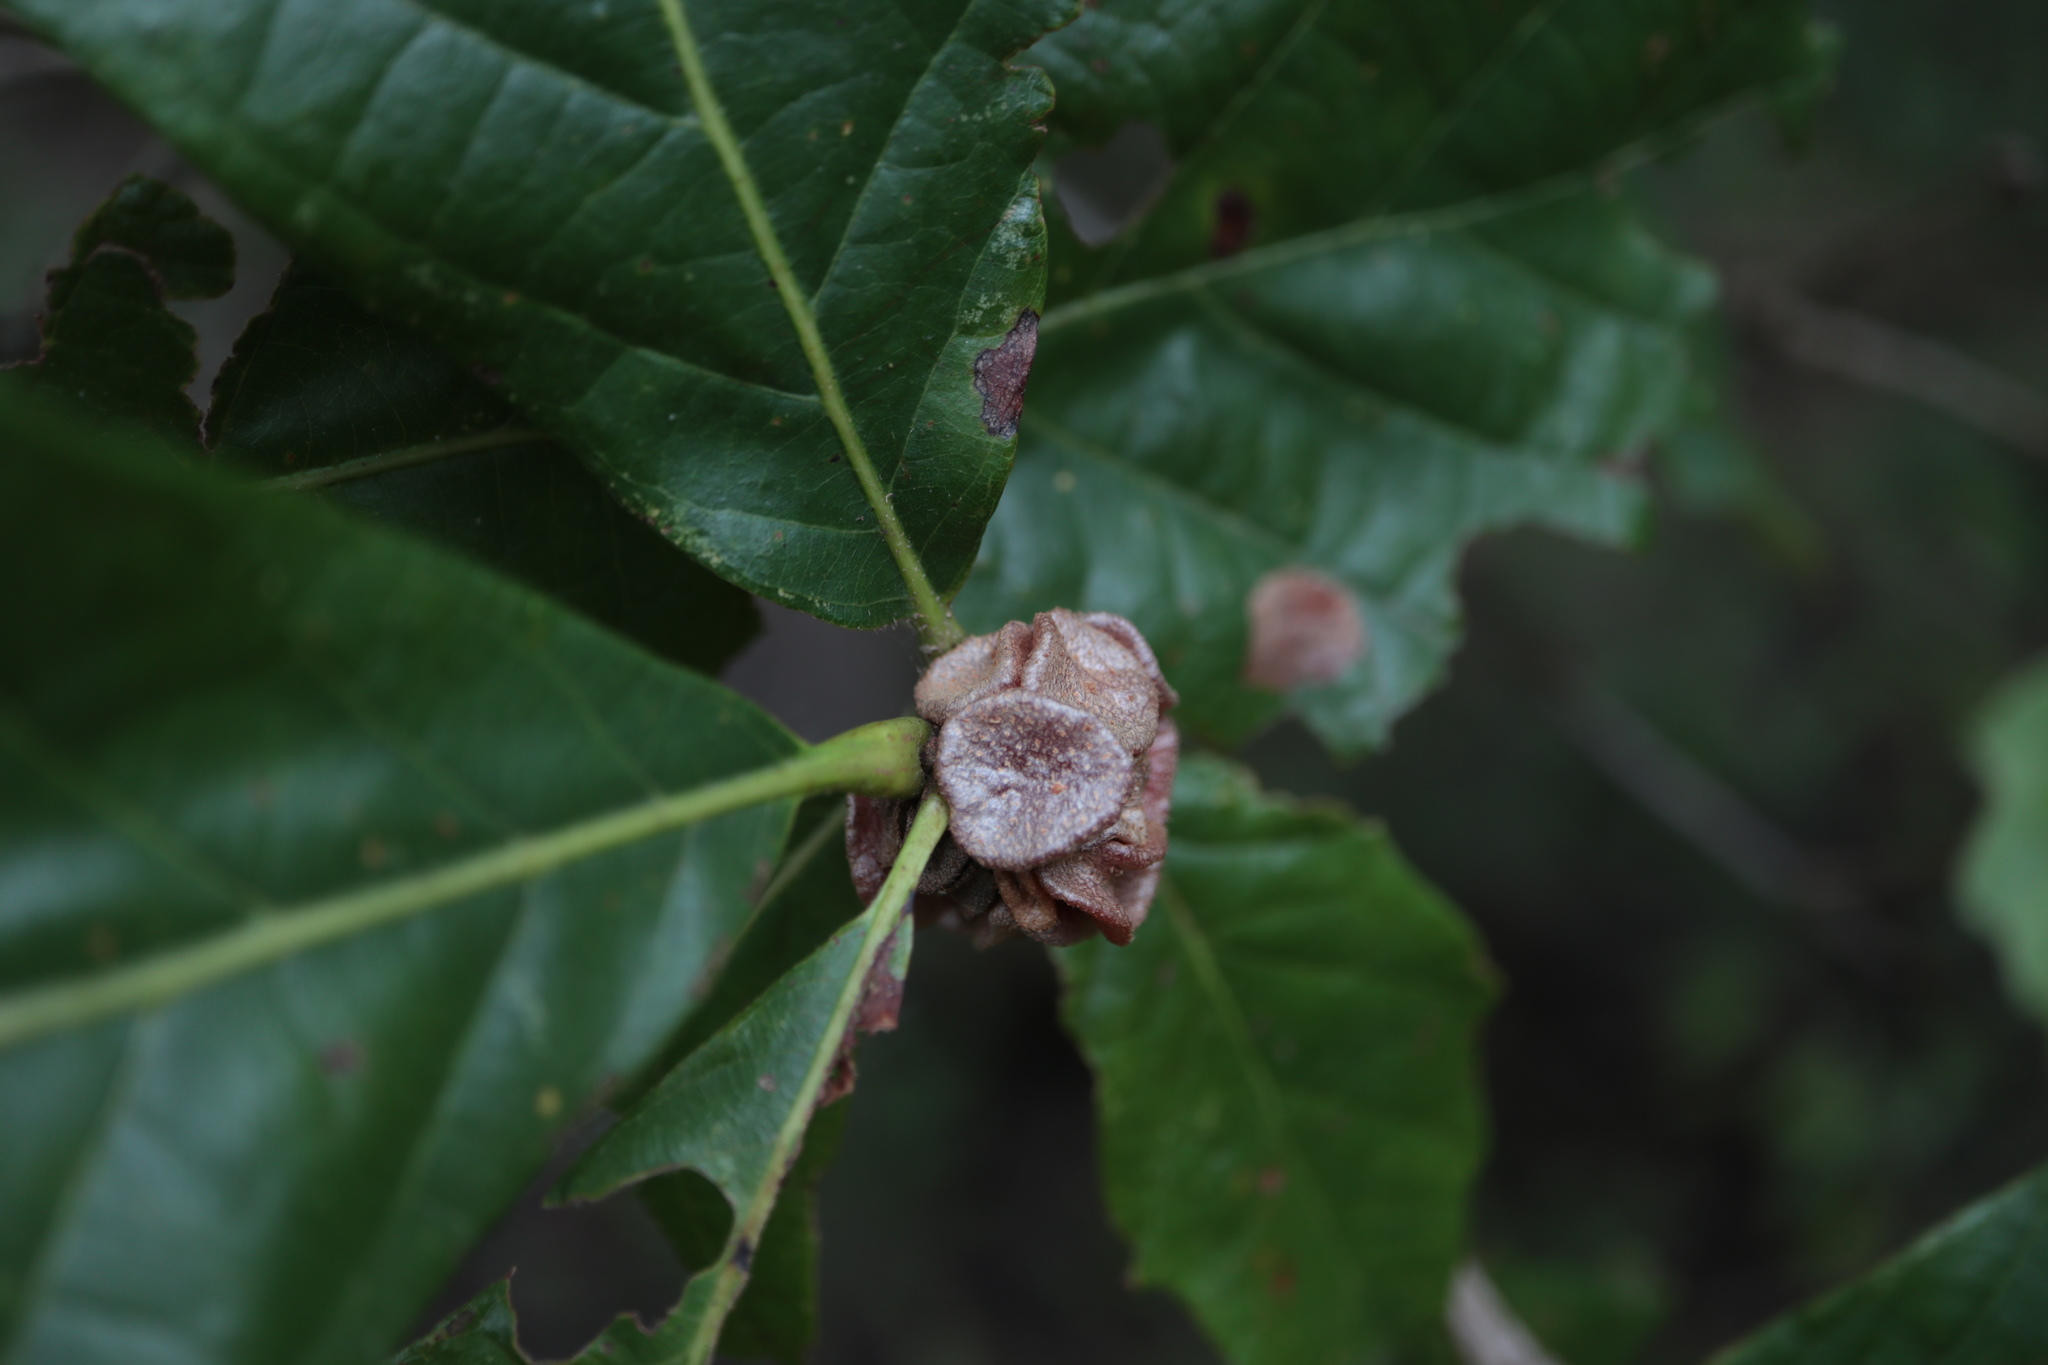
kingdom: Animalia
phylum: Arthropoda
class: Insecta
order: Hymenoptera
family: Cynipidae
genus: Andricus
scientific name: Andricus
